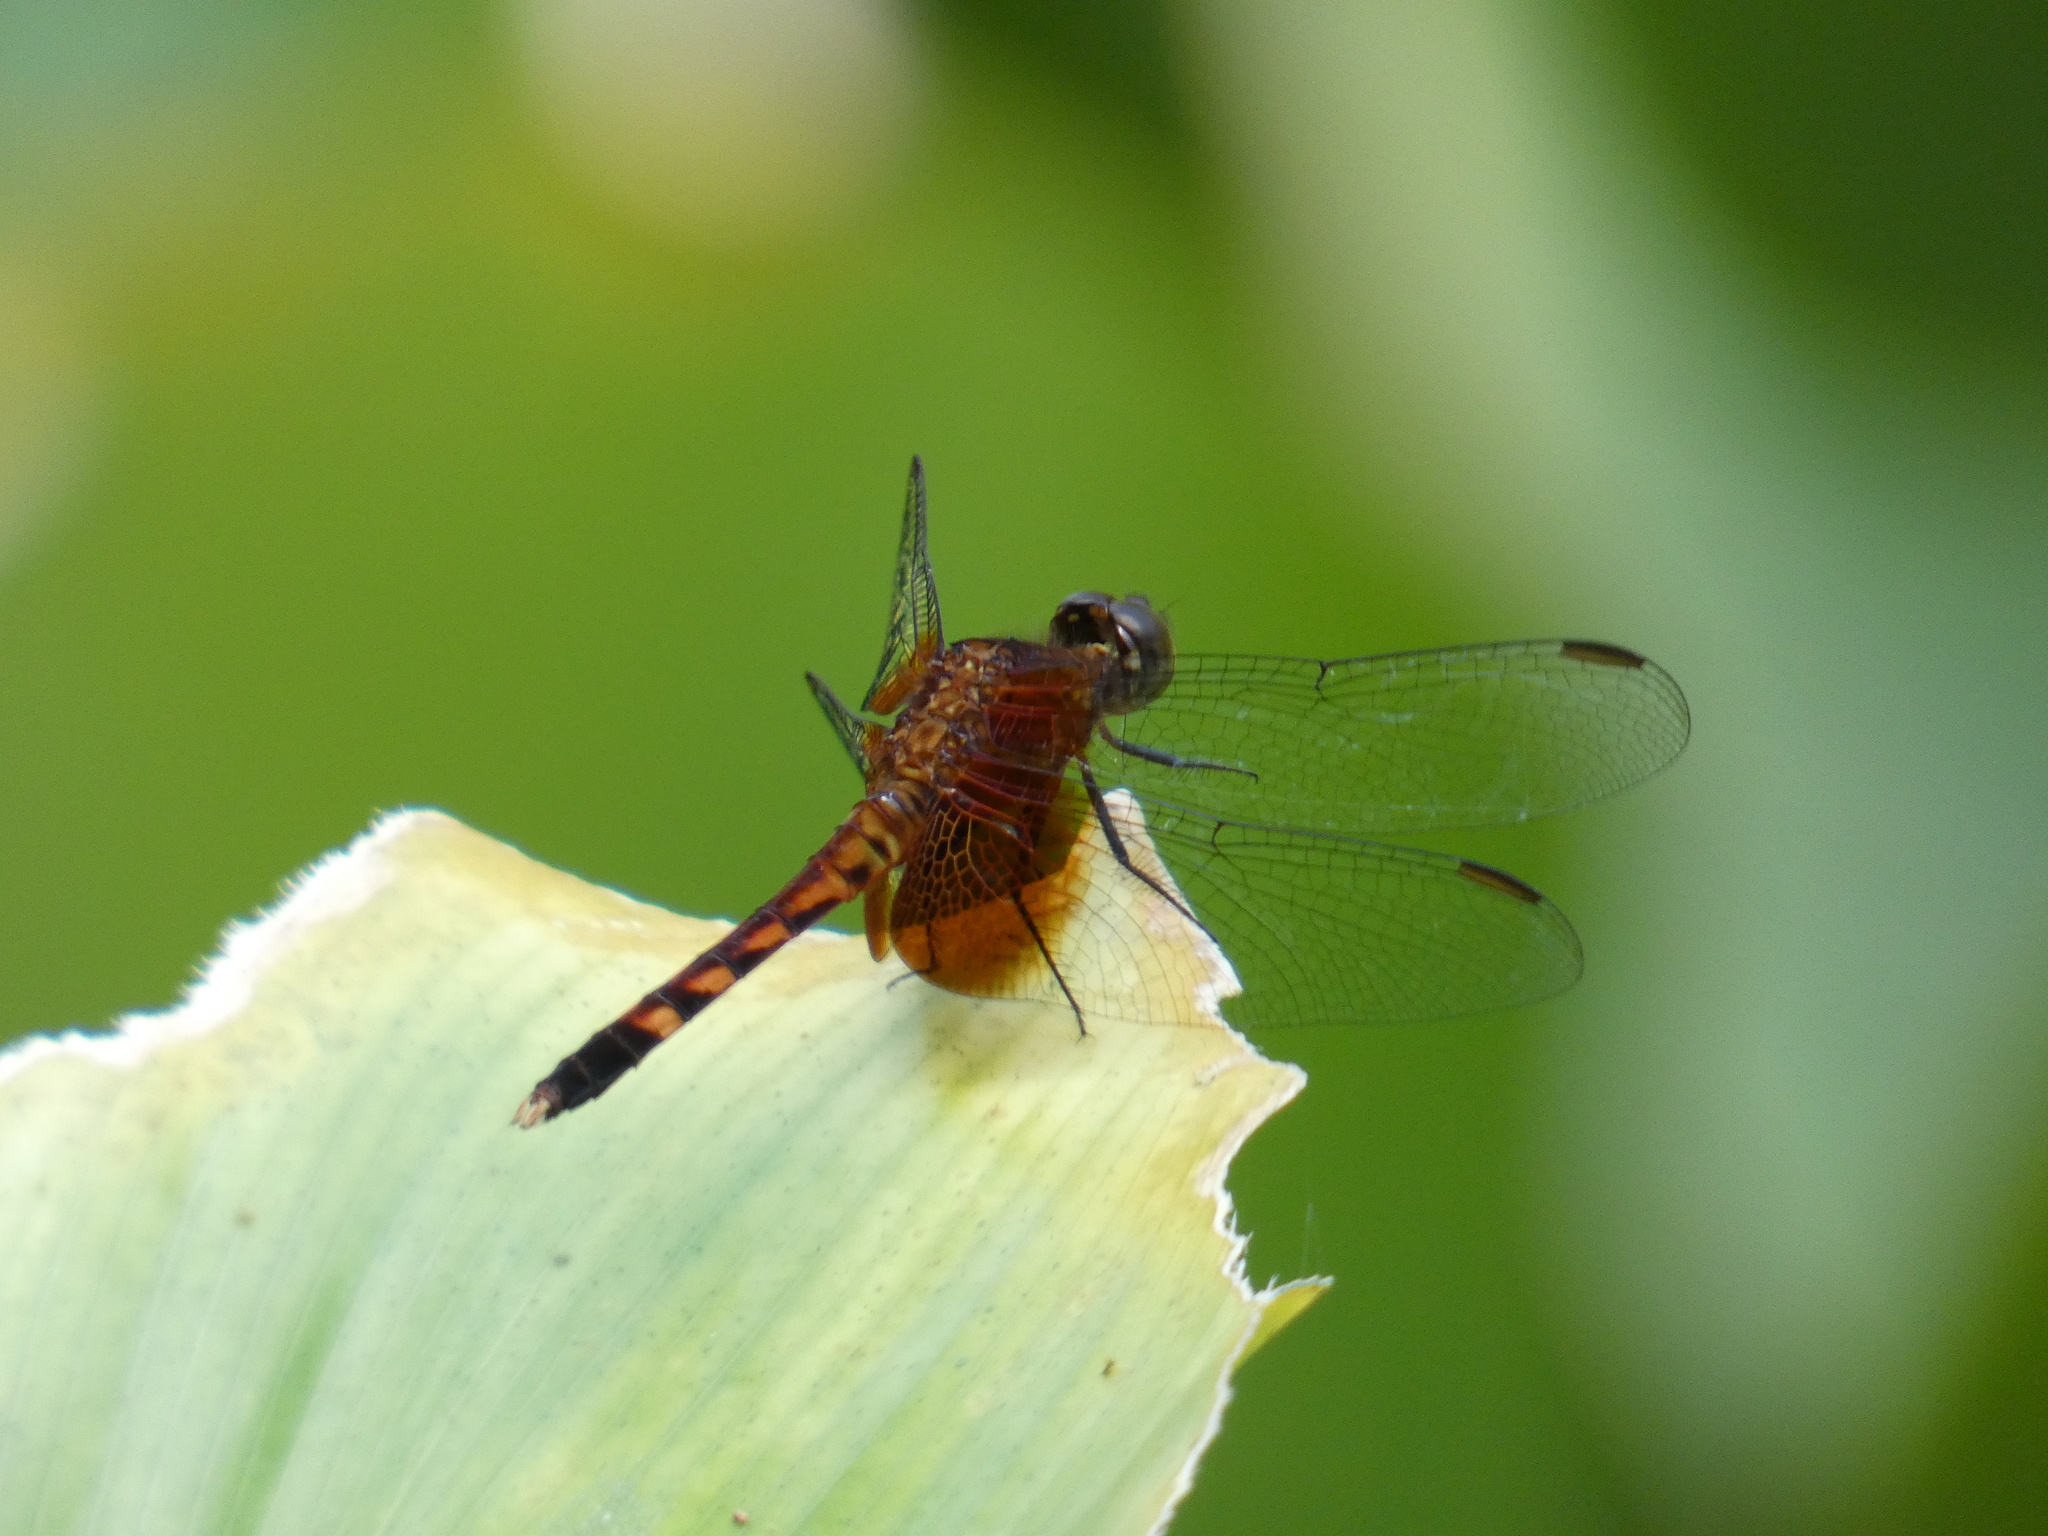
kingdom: Animalia
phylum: Arthropoda
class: Insecta
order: Odonata
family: Libellulidae
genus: Erythrodiplax
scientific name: Erythrodiplax fervida
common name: Red-mantled dragonlet
